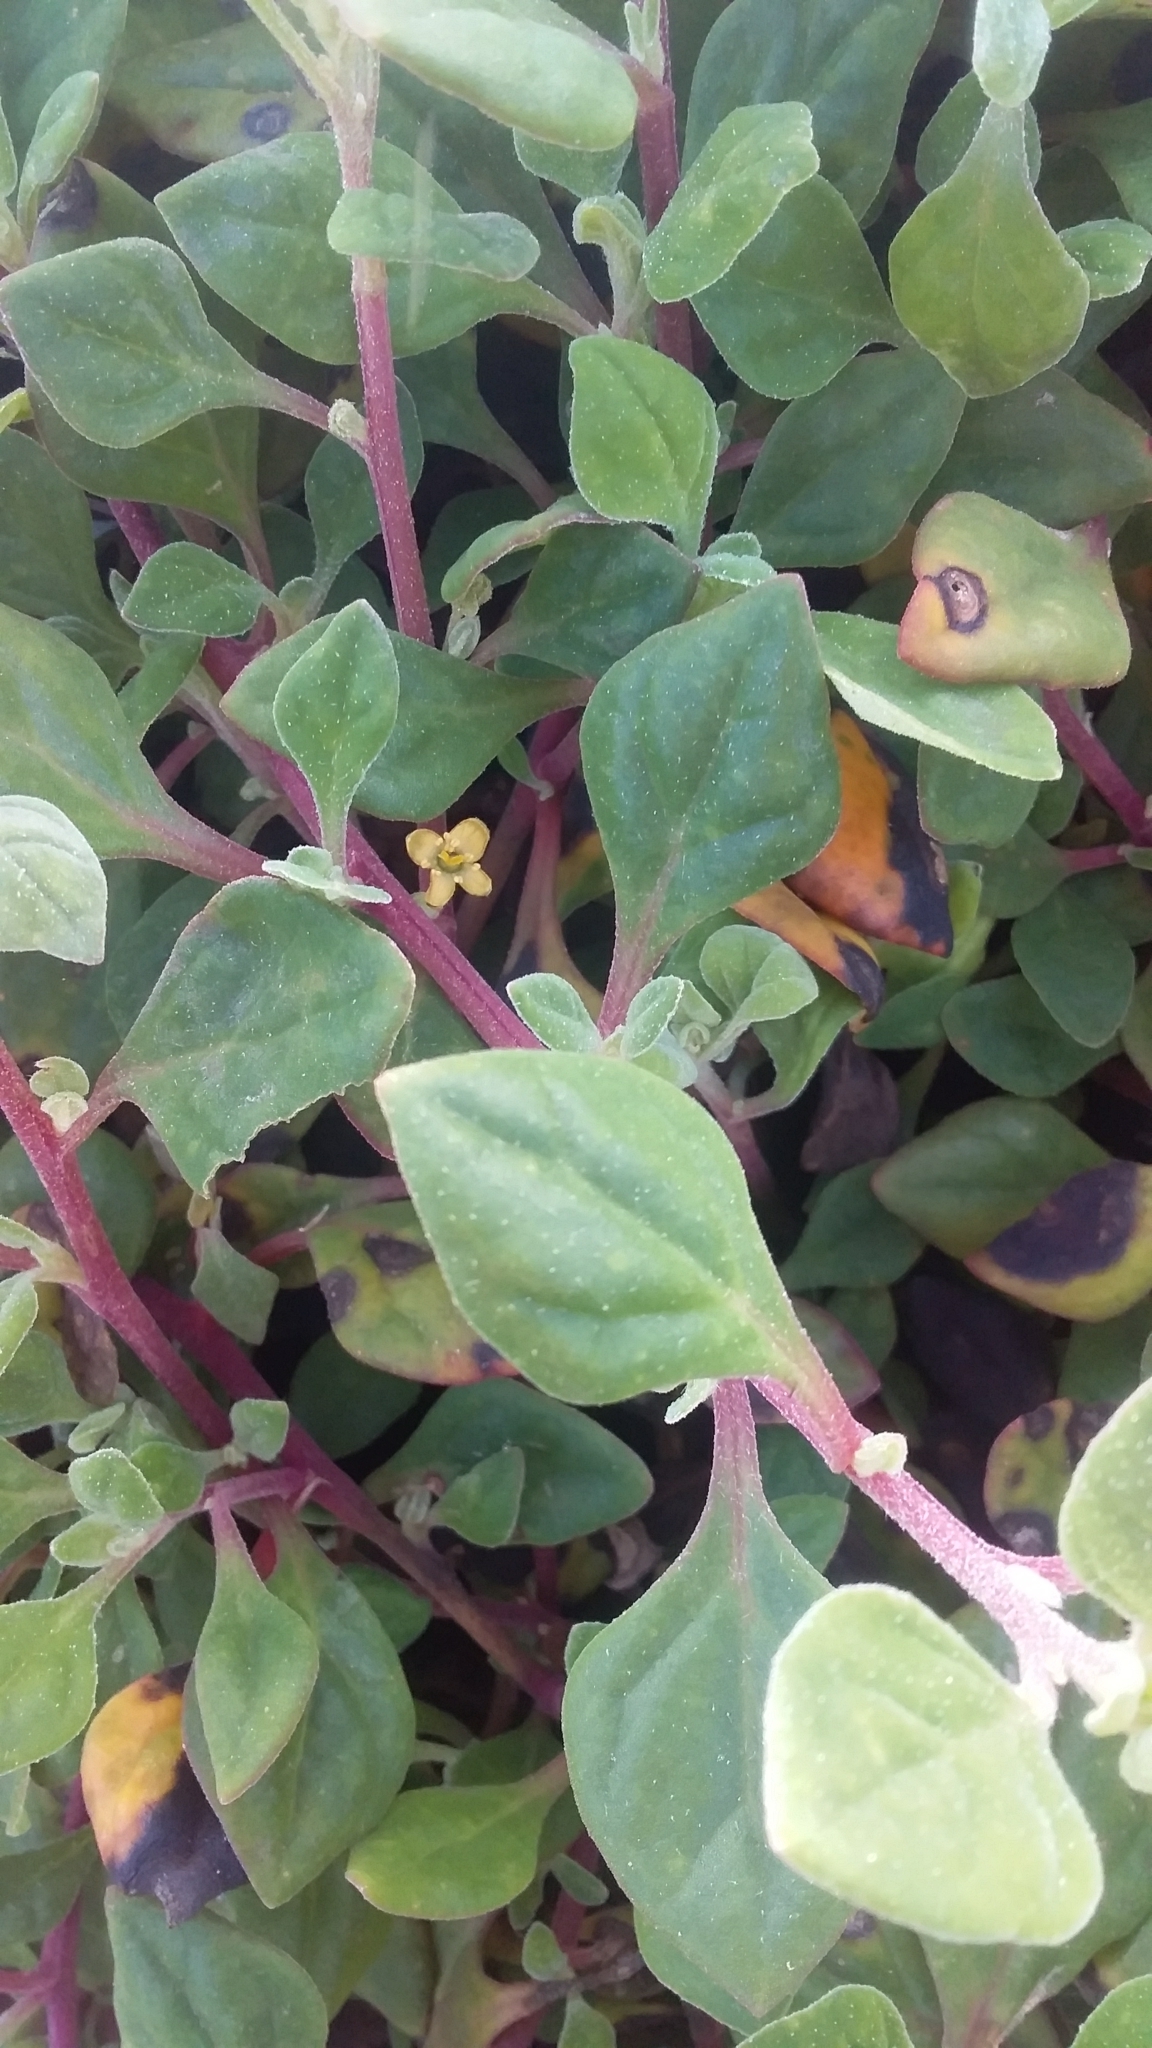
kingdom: Plantae
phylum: Tracheophyta
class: Magnoliopsida
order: Caryophyllales
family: Aizoaceae
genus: Tetragonia
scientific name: Tetragonia implexicoma
